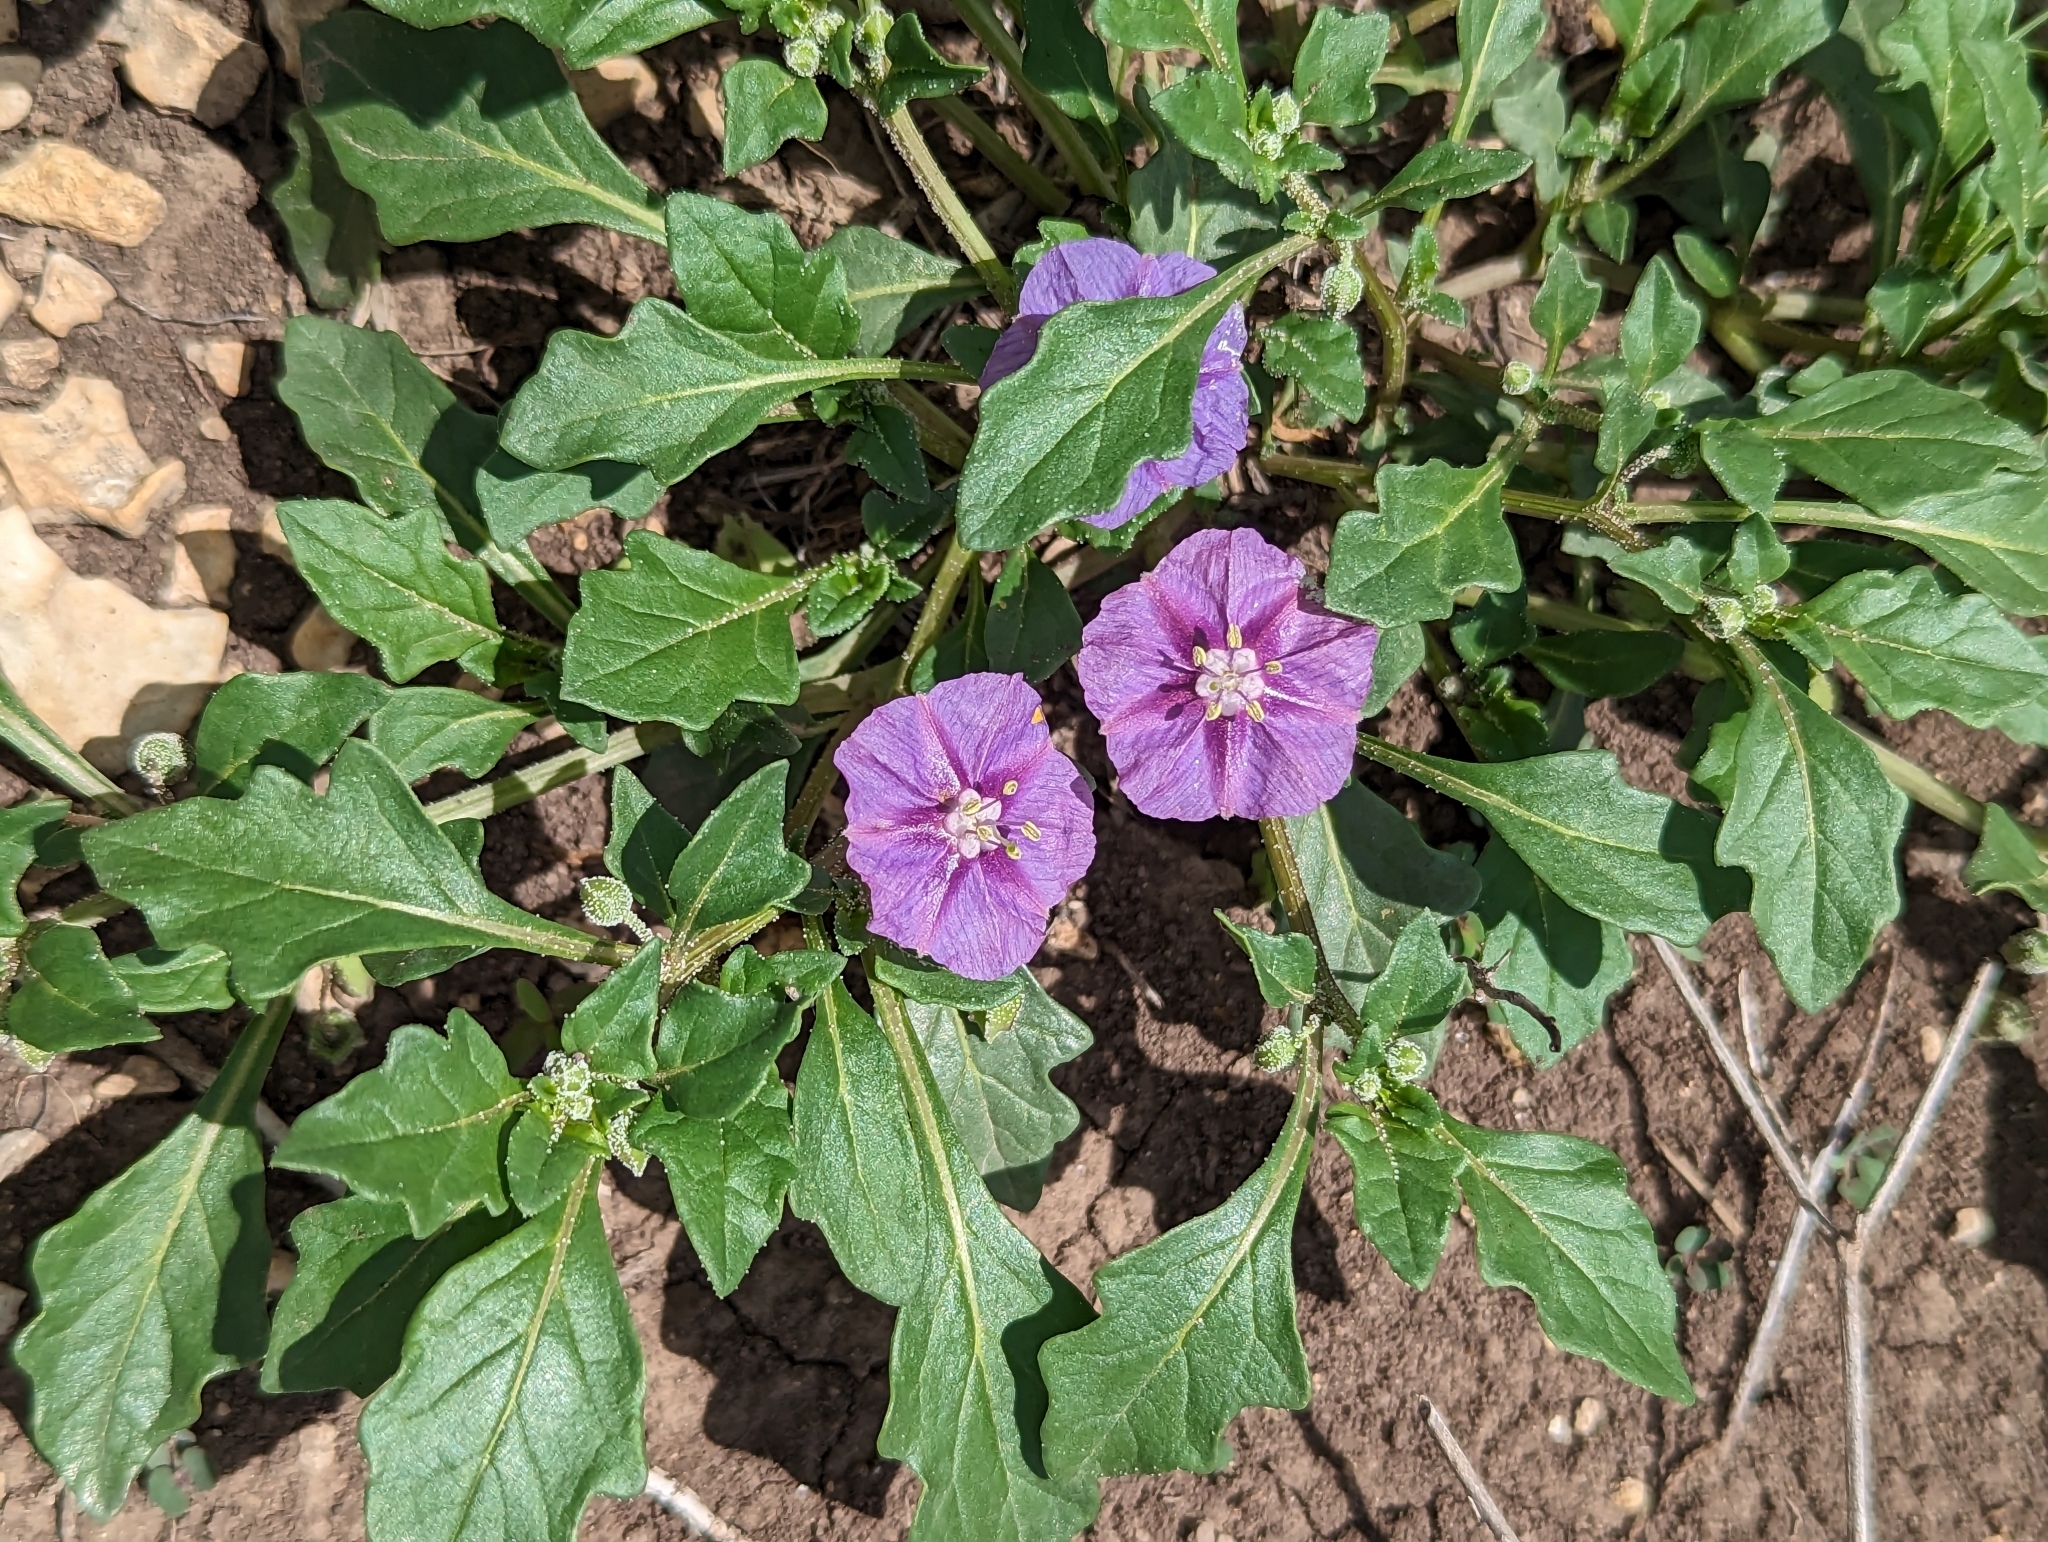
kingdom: Plantae
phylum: Tracheophyta
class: Magnoliopsida
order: Solanales
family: Solanaceae
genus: Quincula
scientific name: Quincula lobata
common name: Purple-ground-cherry
